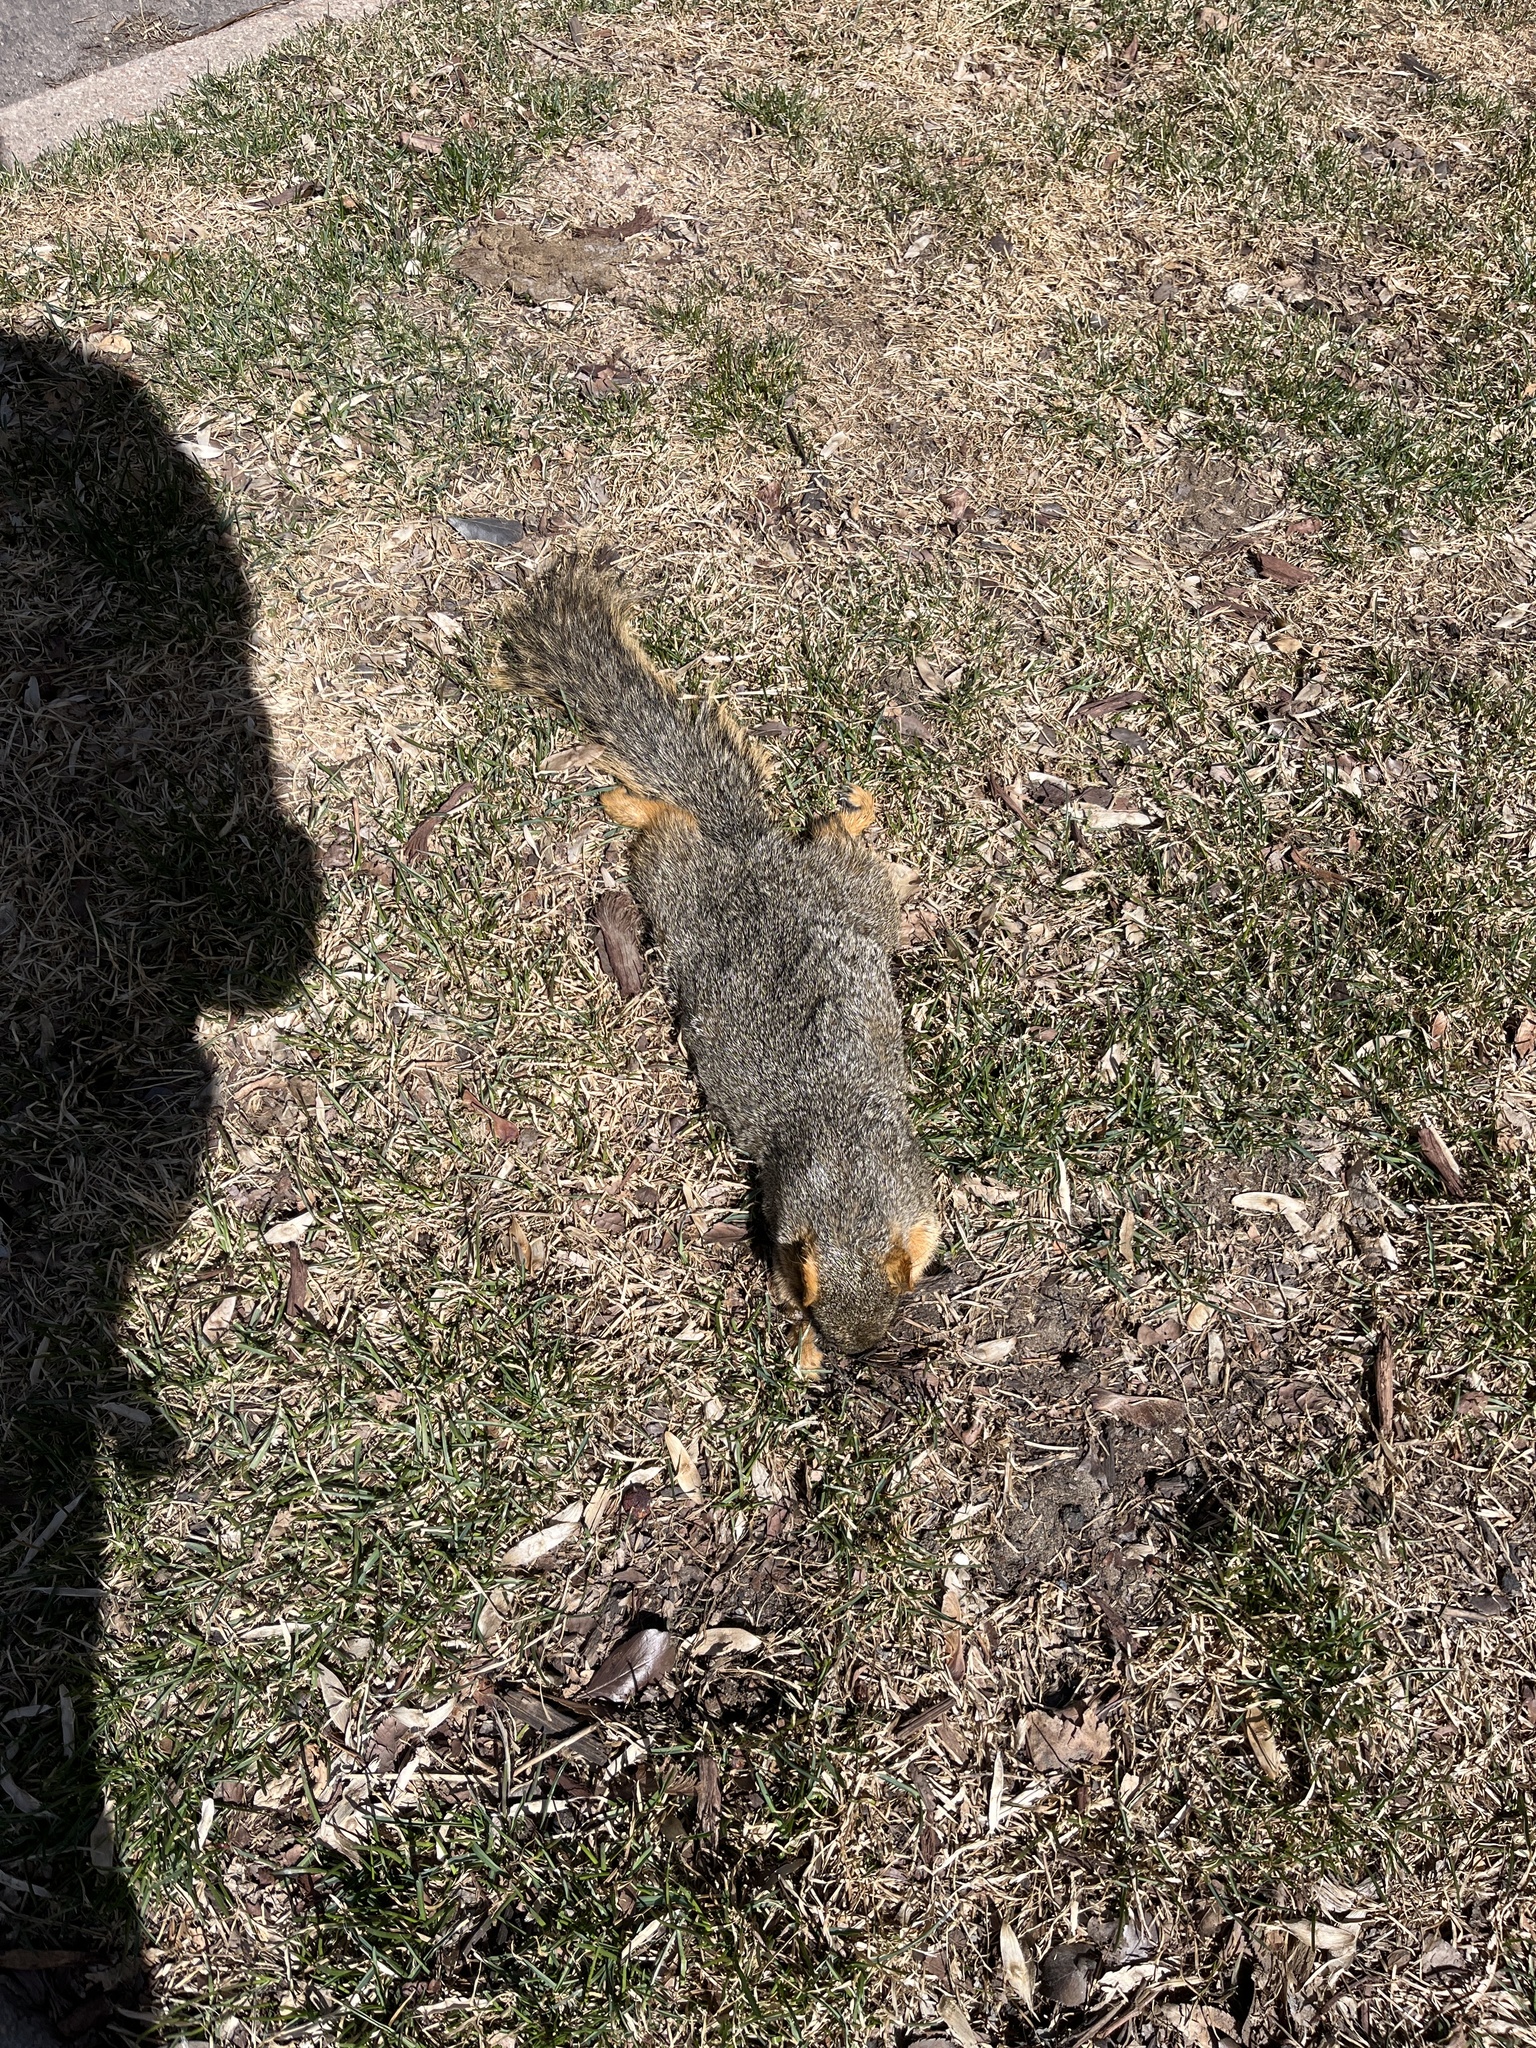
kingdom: Animalia
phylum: Chordata
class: Mammalia
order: Rodentia
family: Sciuridae
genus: Sciurus
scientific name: Sciurus niger
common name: Fox squirrel
